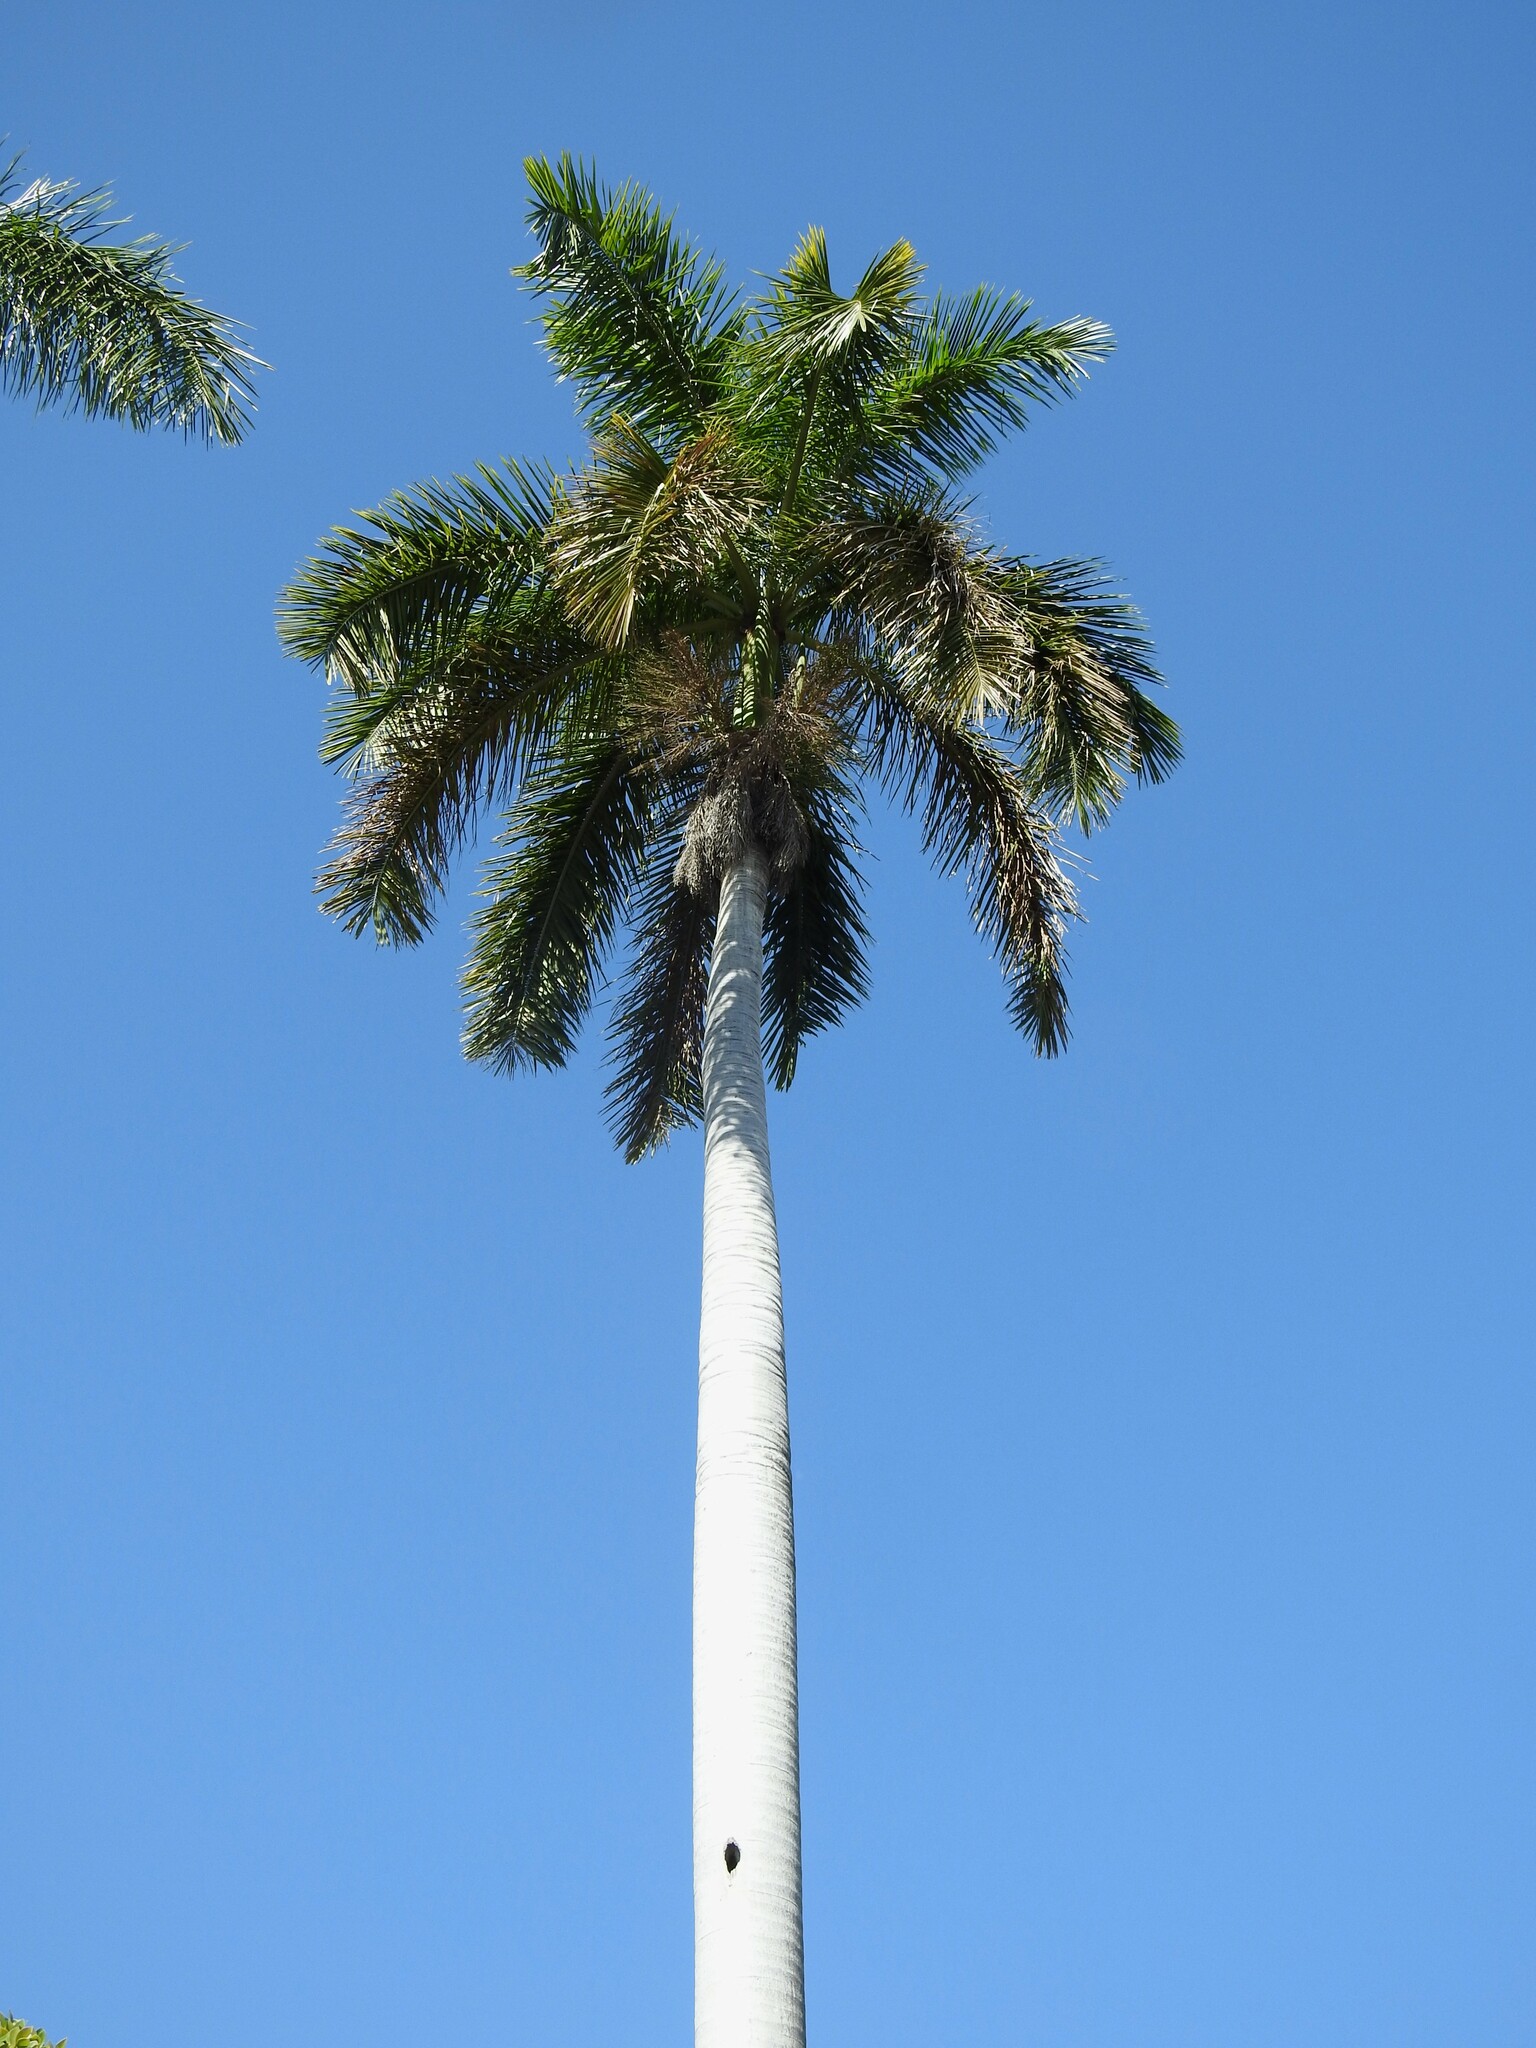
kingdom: Plantae
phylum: Tracheophyta
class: Liliopsida
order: Arecales
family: Arecaceae
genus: Roystonea
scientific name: Roystonea regia
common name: Florida royal palm
